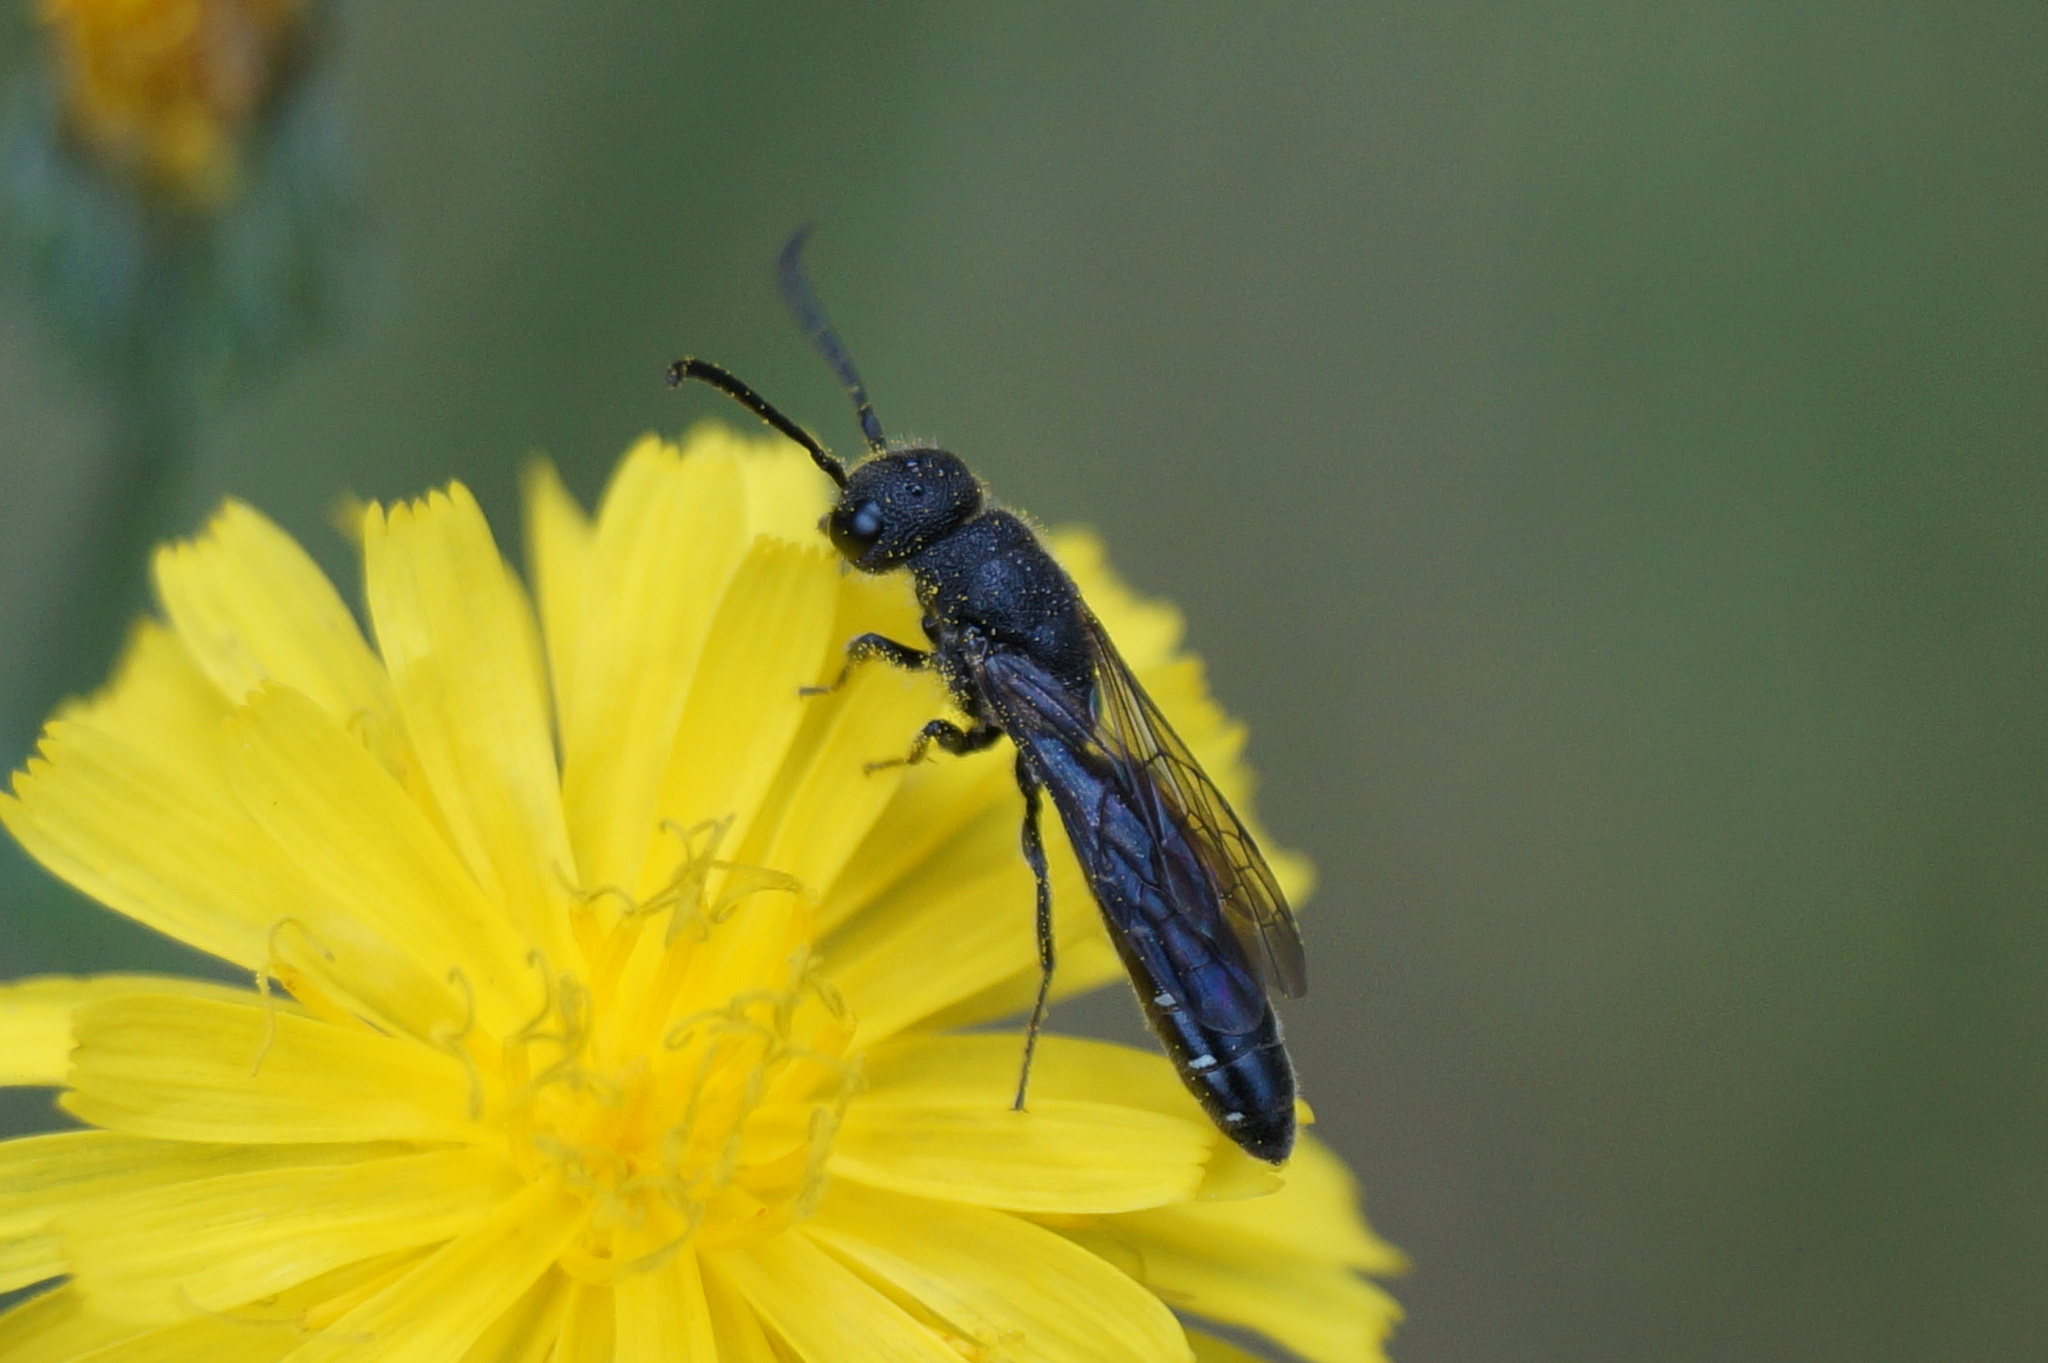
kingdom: Animalia
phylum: Arthropoda
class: Insecta
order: Hymenoptera
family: Sapygidae
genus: Sapygina
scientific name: Sapygina decemguttata
